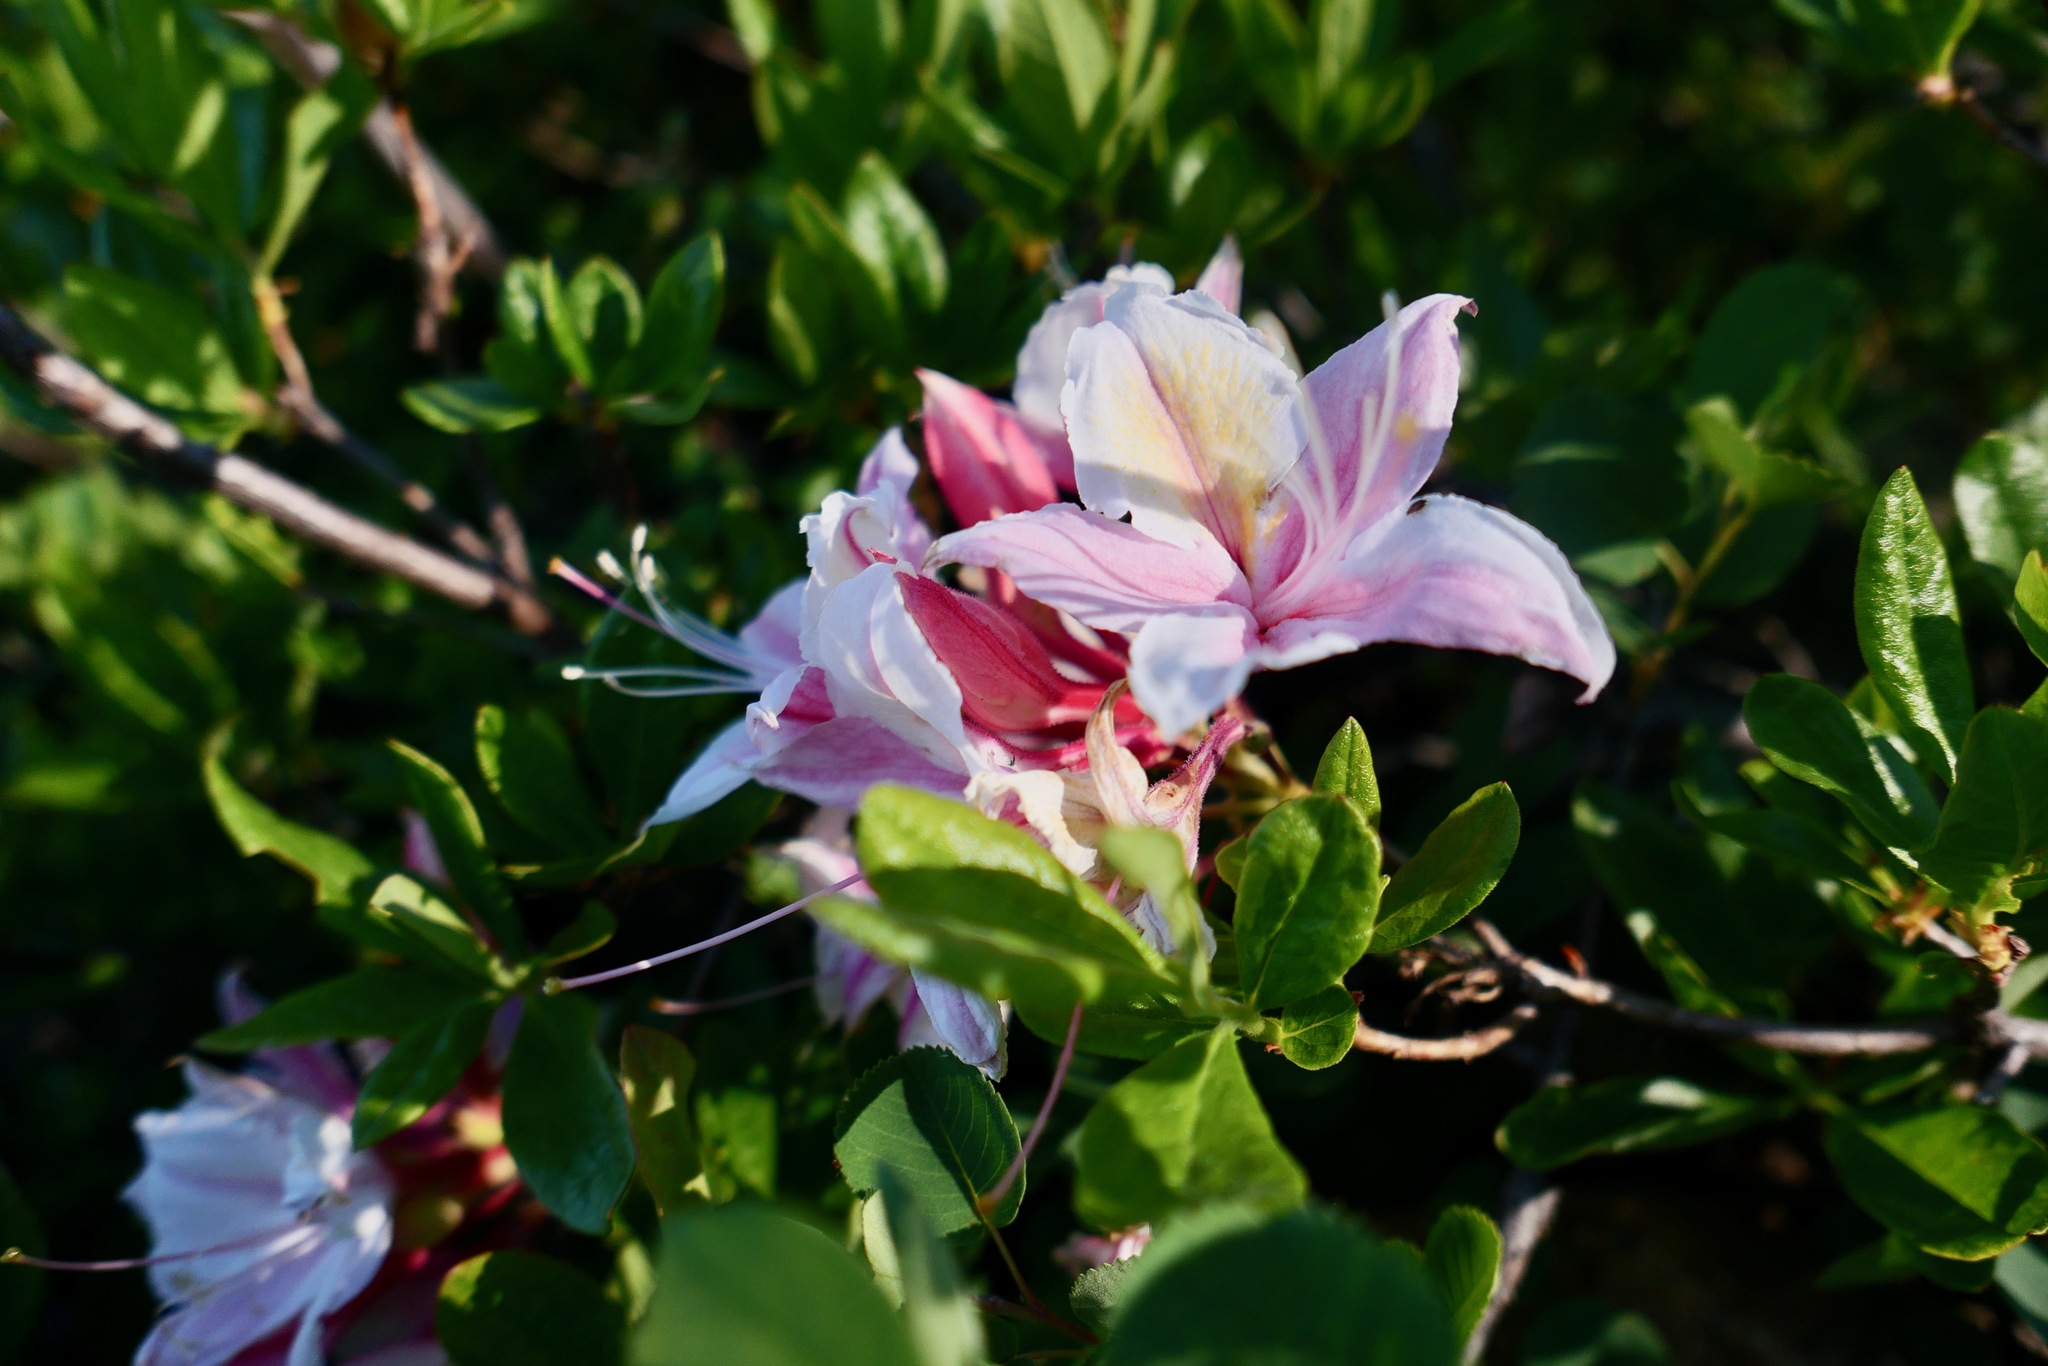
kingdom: Plantae
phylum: Tracheophyta
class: Magnoliopsida
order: Ericales
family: Ericaceae
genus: Rhododendron
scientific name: Rhododendron occidentale
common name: Western azalea
